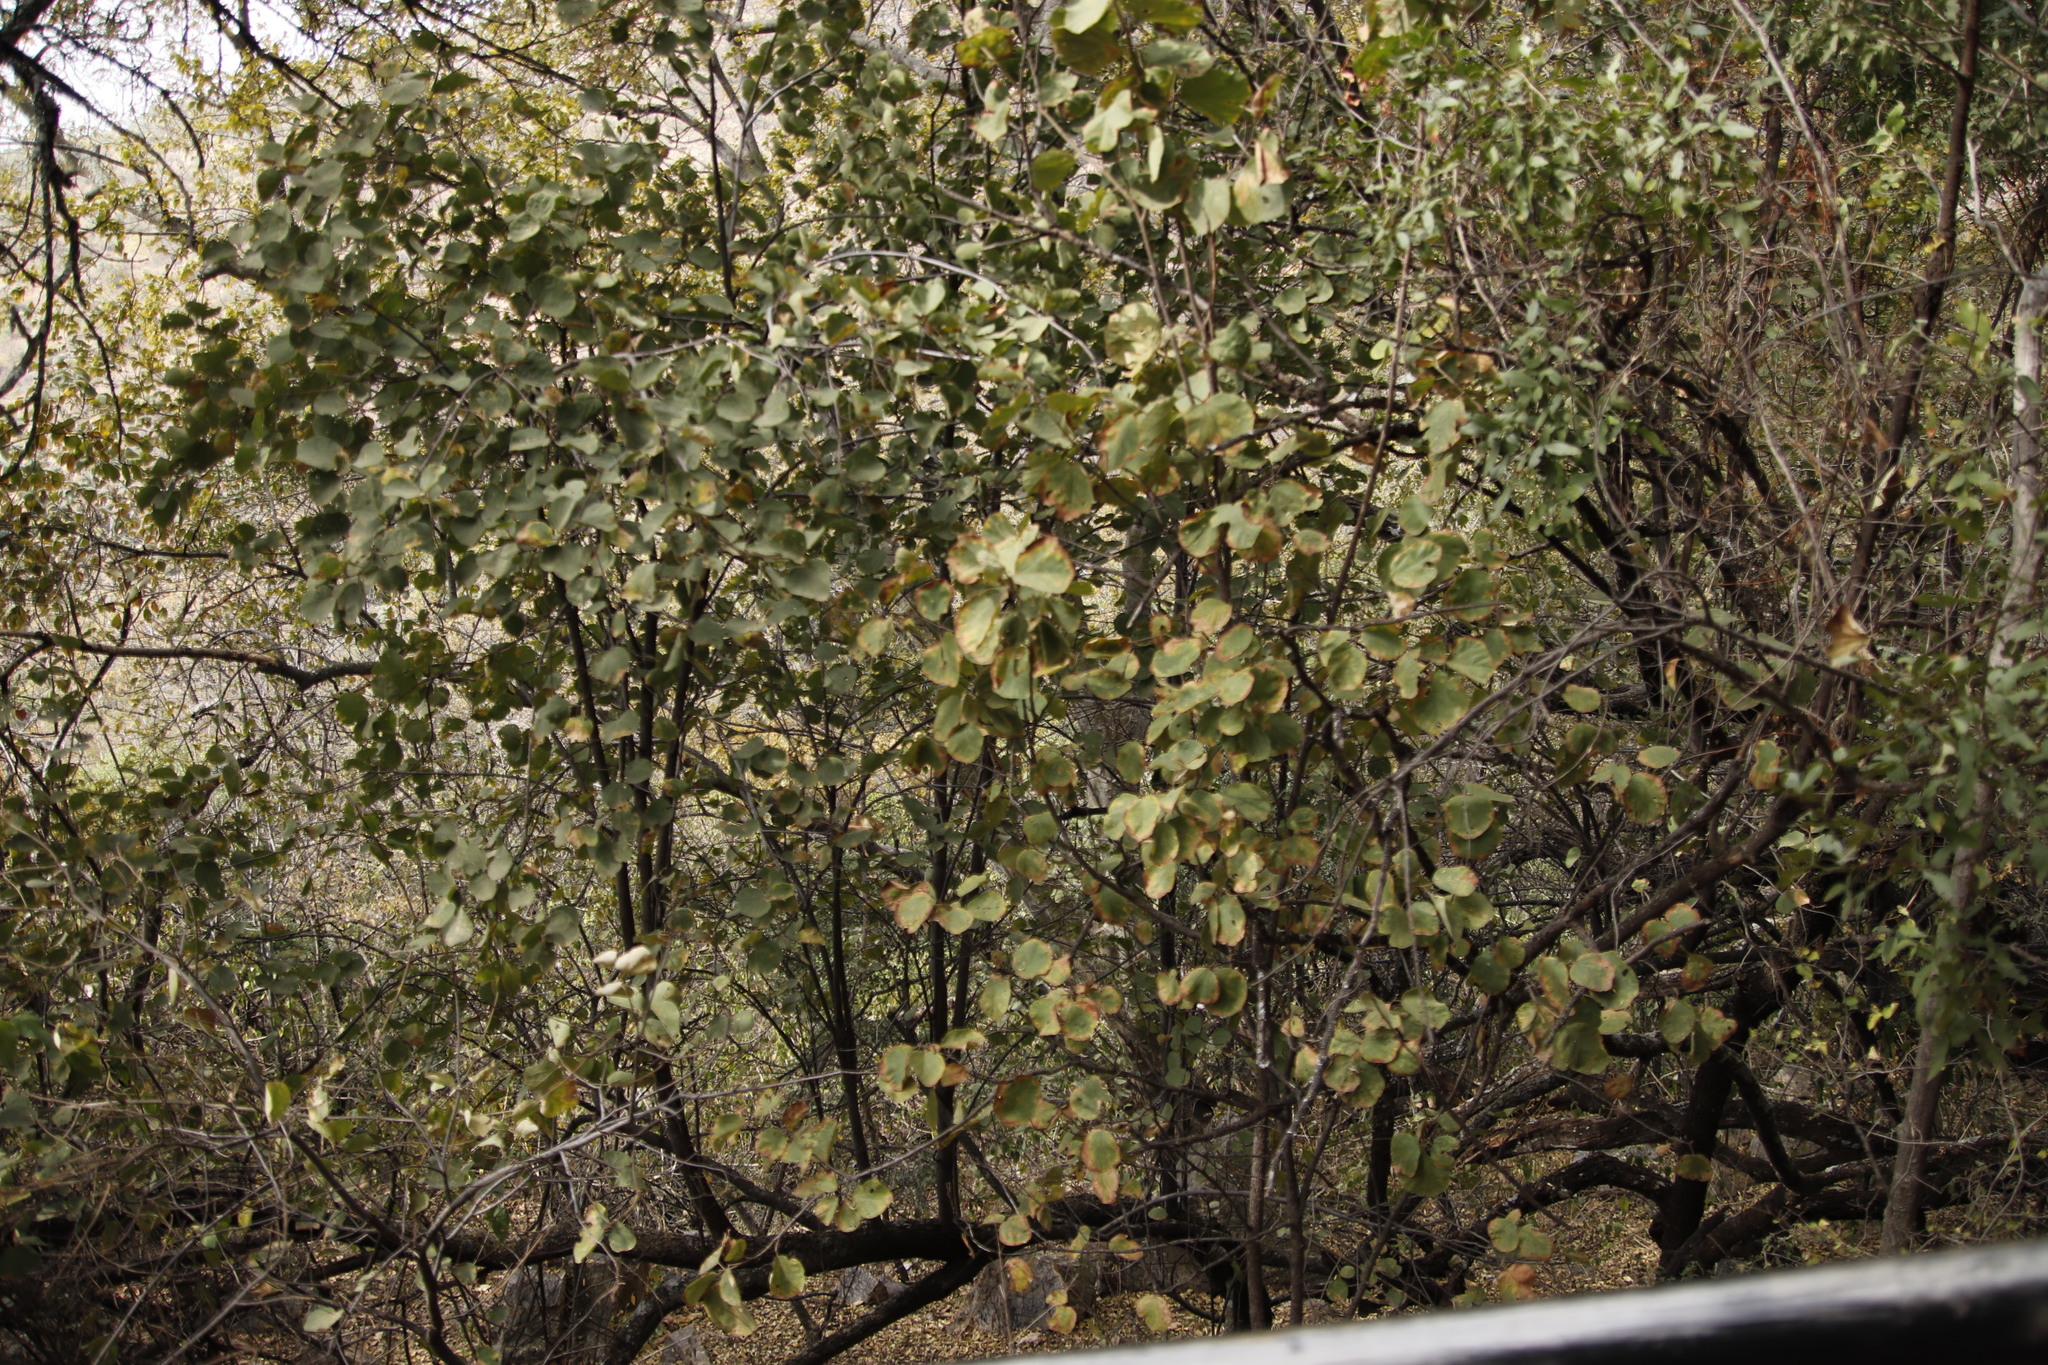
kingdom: Plantae
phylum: Tracheophyta
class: Magnoliopsida
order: Malvales
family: Malvaceae
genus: Dombeya
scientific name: Dombeya rotundifolia
